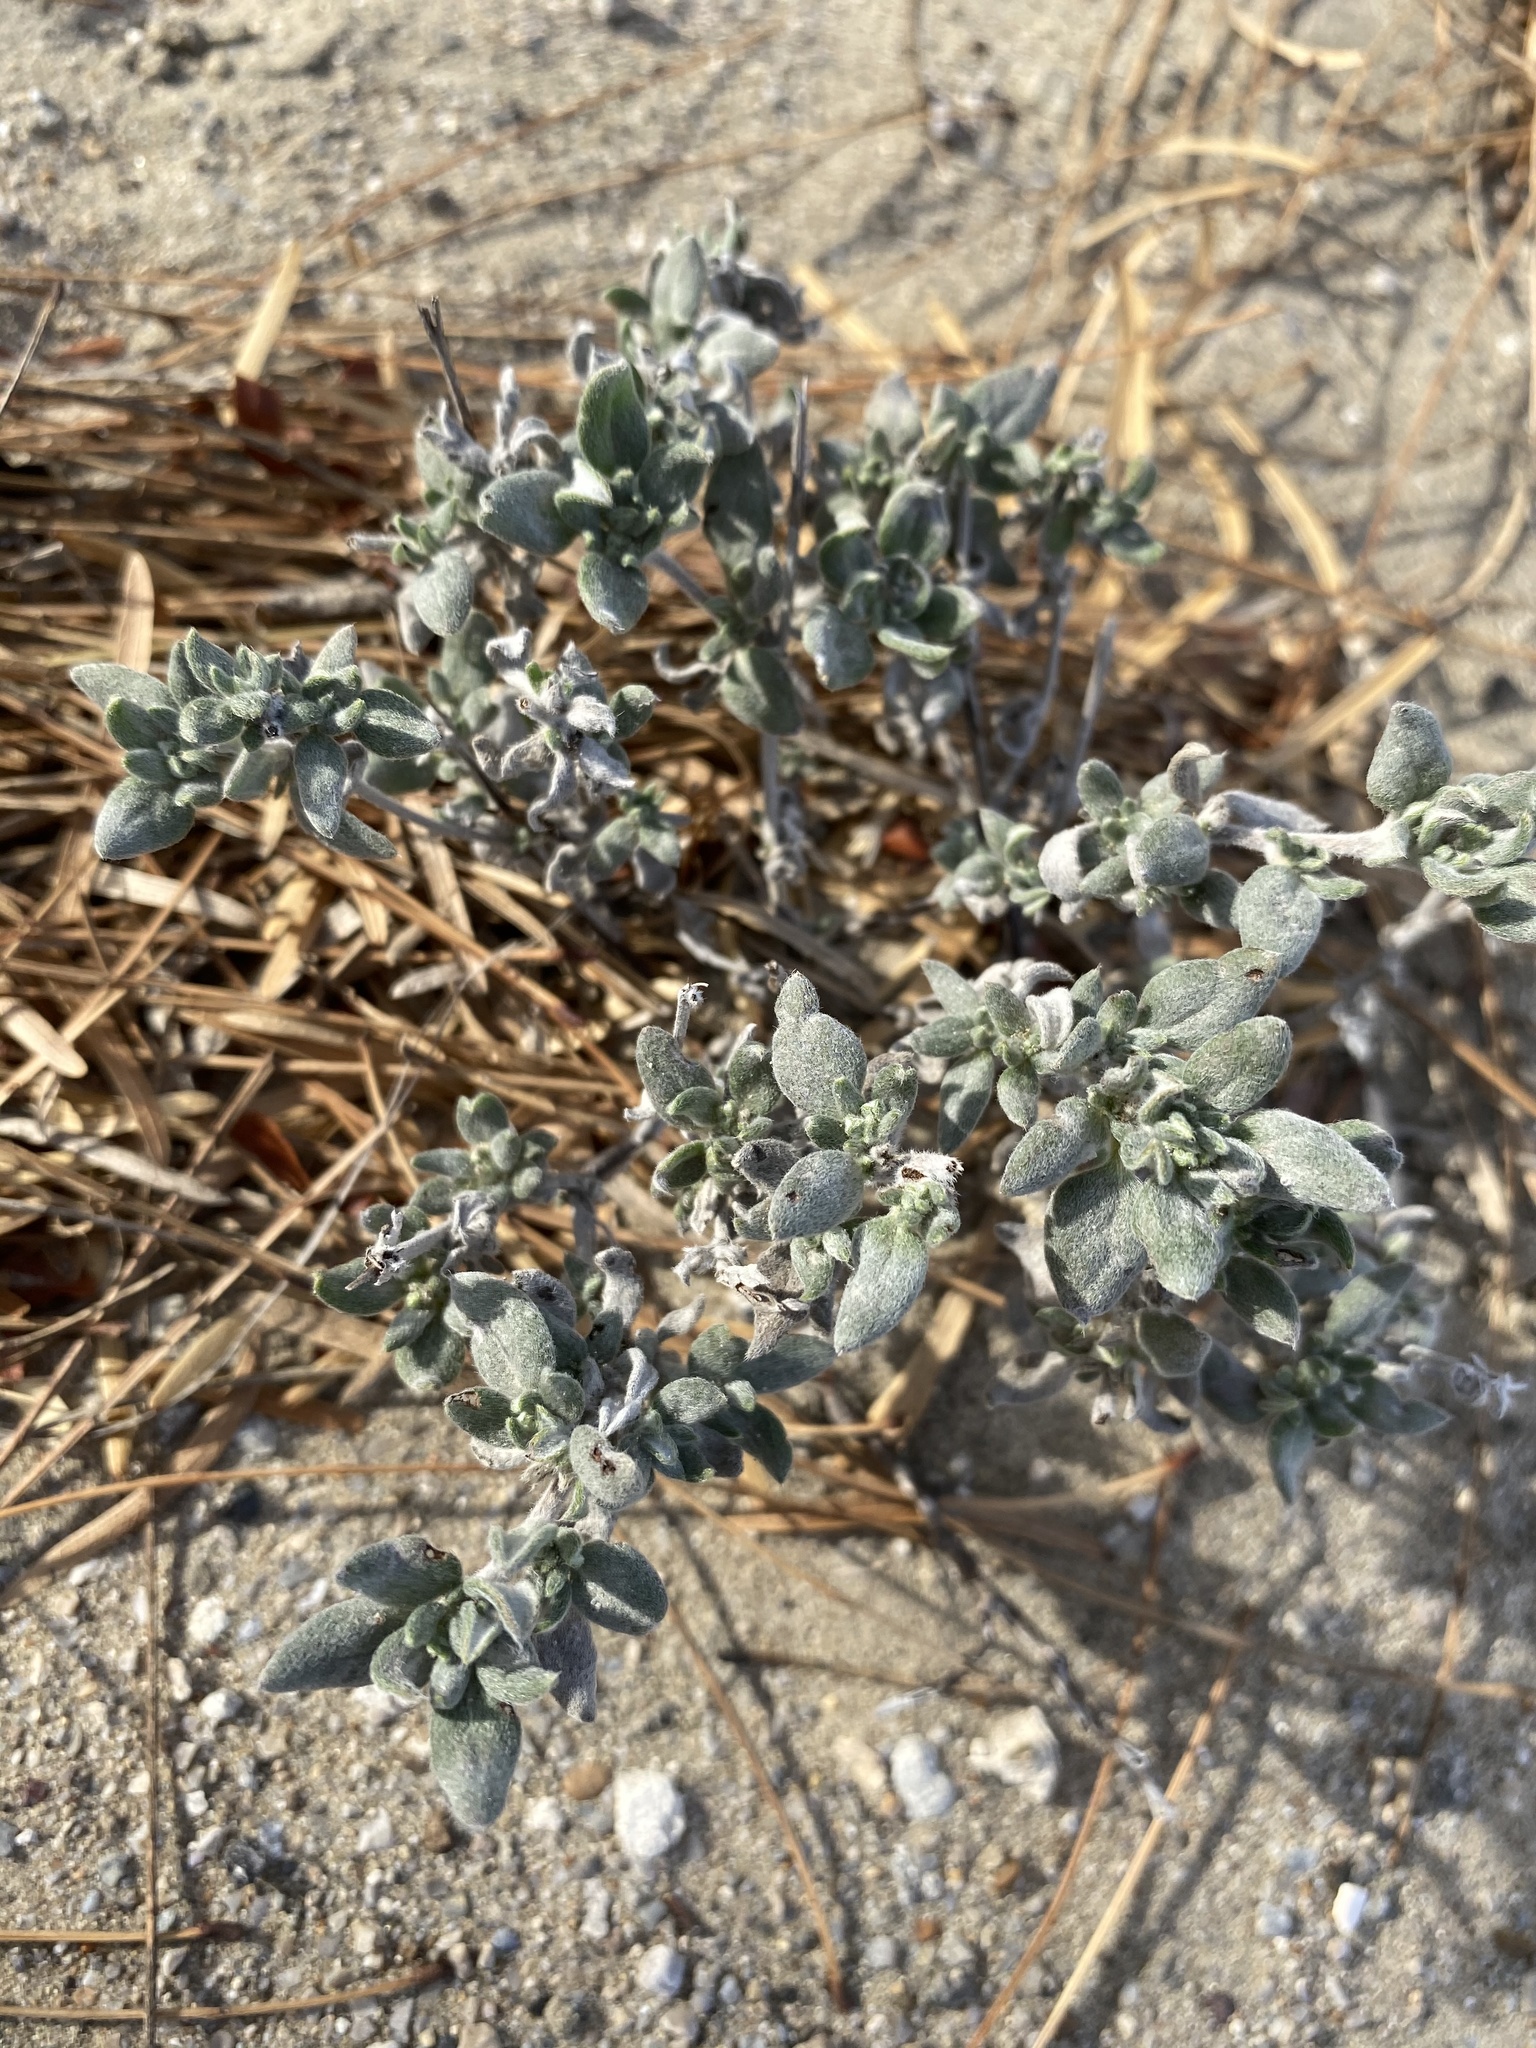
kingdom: Plantae
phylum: Tracheophyta
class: Magnoliopsida
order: Boraginales
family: Ehretiaceae
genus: Tiquilia
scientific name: Tiquilia canescens
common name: Hairy tiquilia
